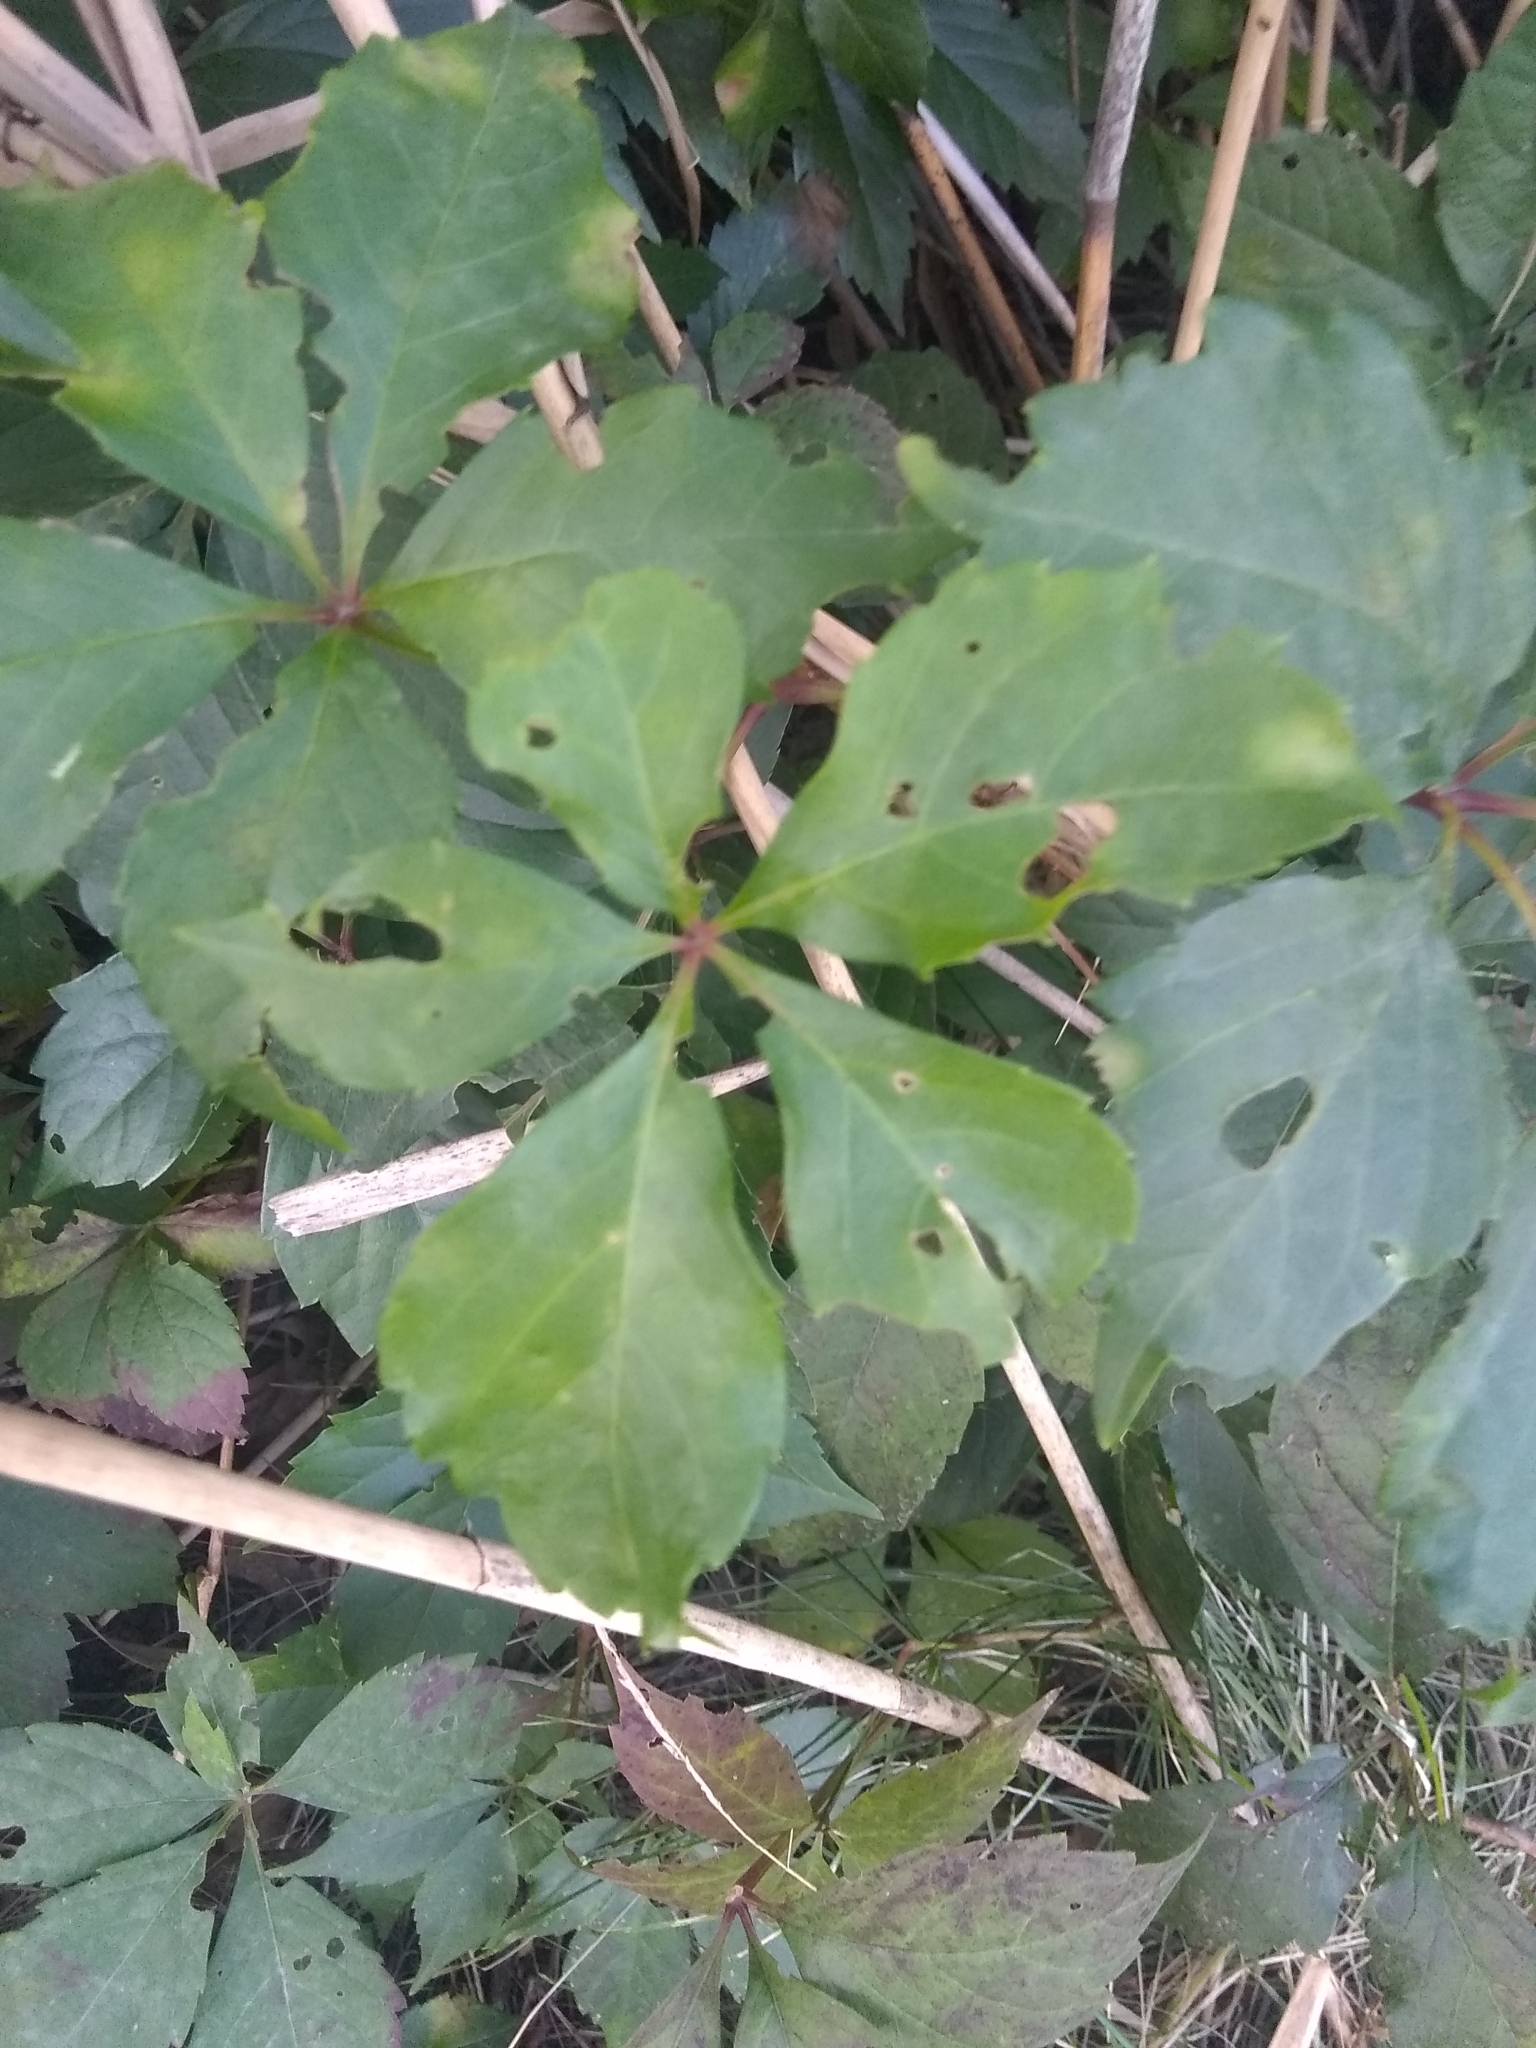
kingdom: Plantae
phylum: Tracheophyta
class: Magnoliopsida
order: Vitales
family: Vitaceae
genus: Parthenocissus
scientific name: Parthenocissus quinquefolia
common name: Virginia-creeper
